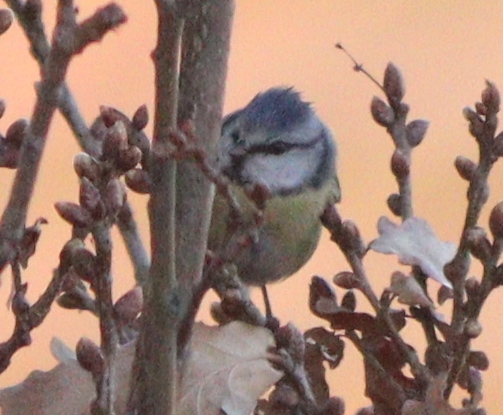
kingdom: Animalia
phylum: Chordata
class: Aves
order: Passeriformes
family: Paridae
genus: Cyanistes
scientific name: Cyanistes caeruleus
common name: Eurasian blue tit
